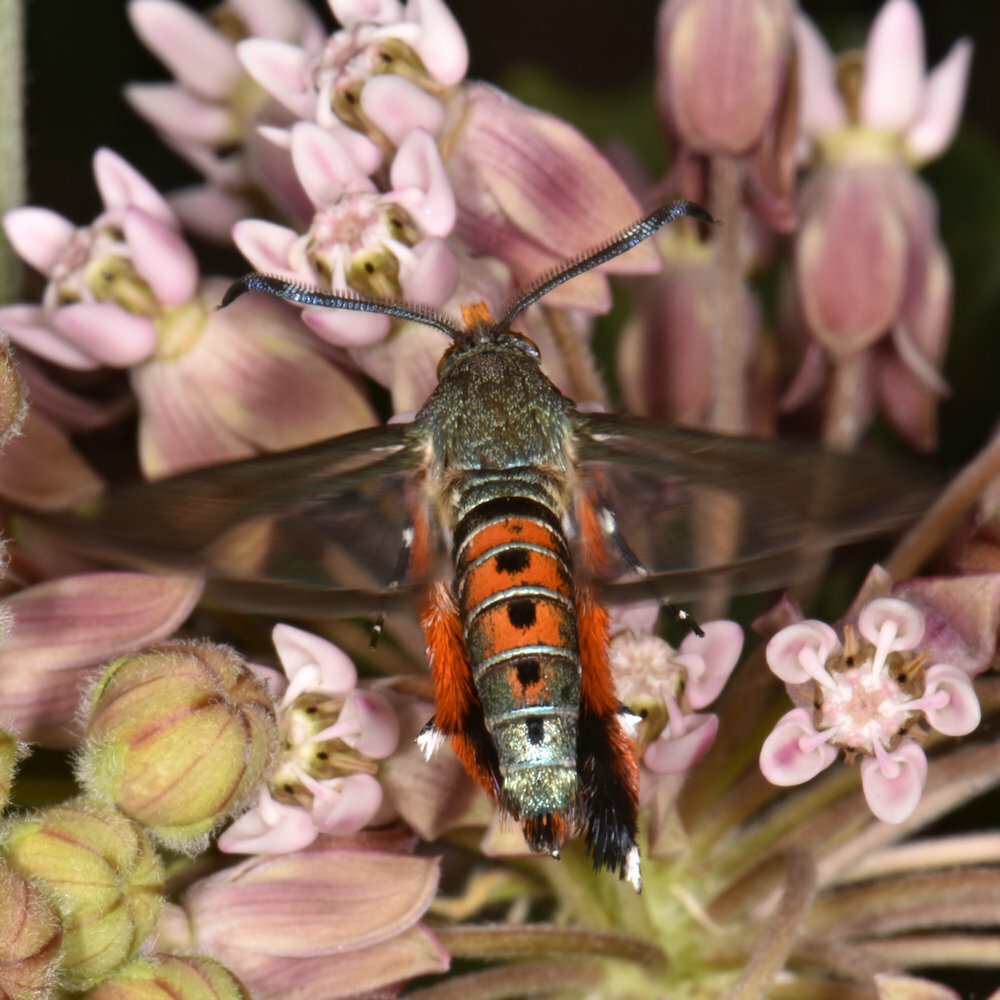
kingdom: Animalia
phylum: Arthropoda
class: Insecta
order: Lepidoptera
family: Sesiidae
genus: Eichlinia
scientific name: Eichlinia cucurbitae
